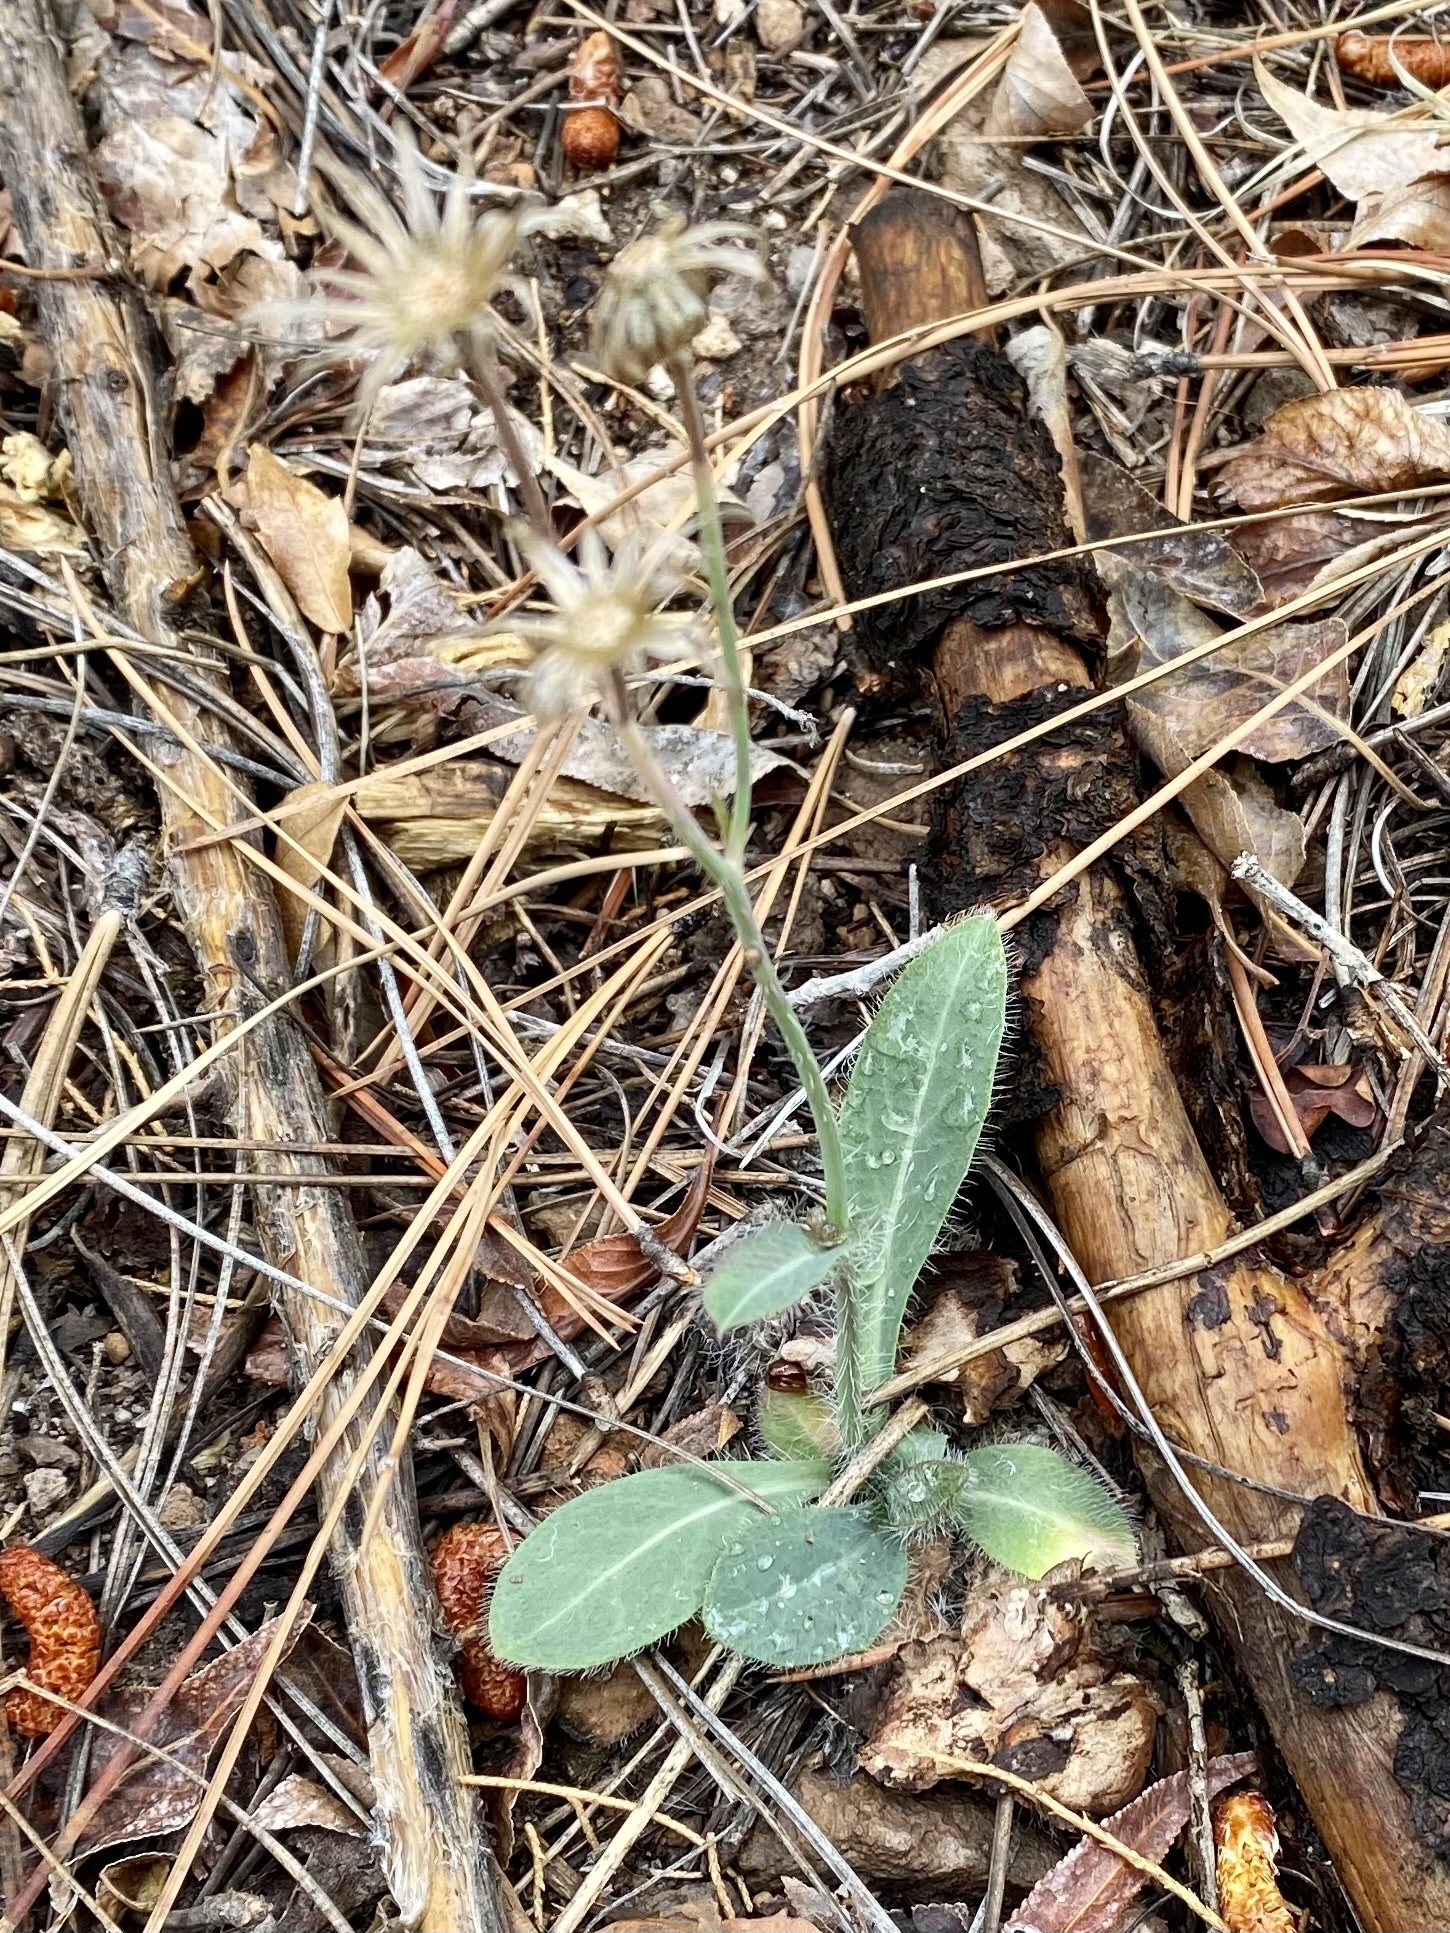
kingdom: Plantae
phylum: Tracheophyta
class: Magnoliopsida
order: Asterales
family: Asteraceae
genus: Hieracium
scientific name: Hieracium fendleri
